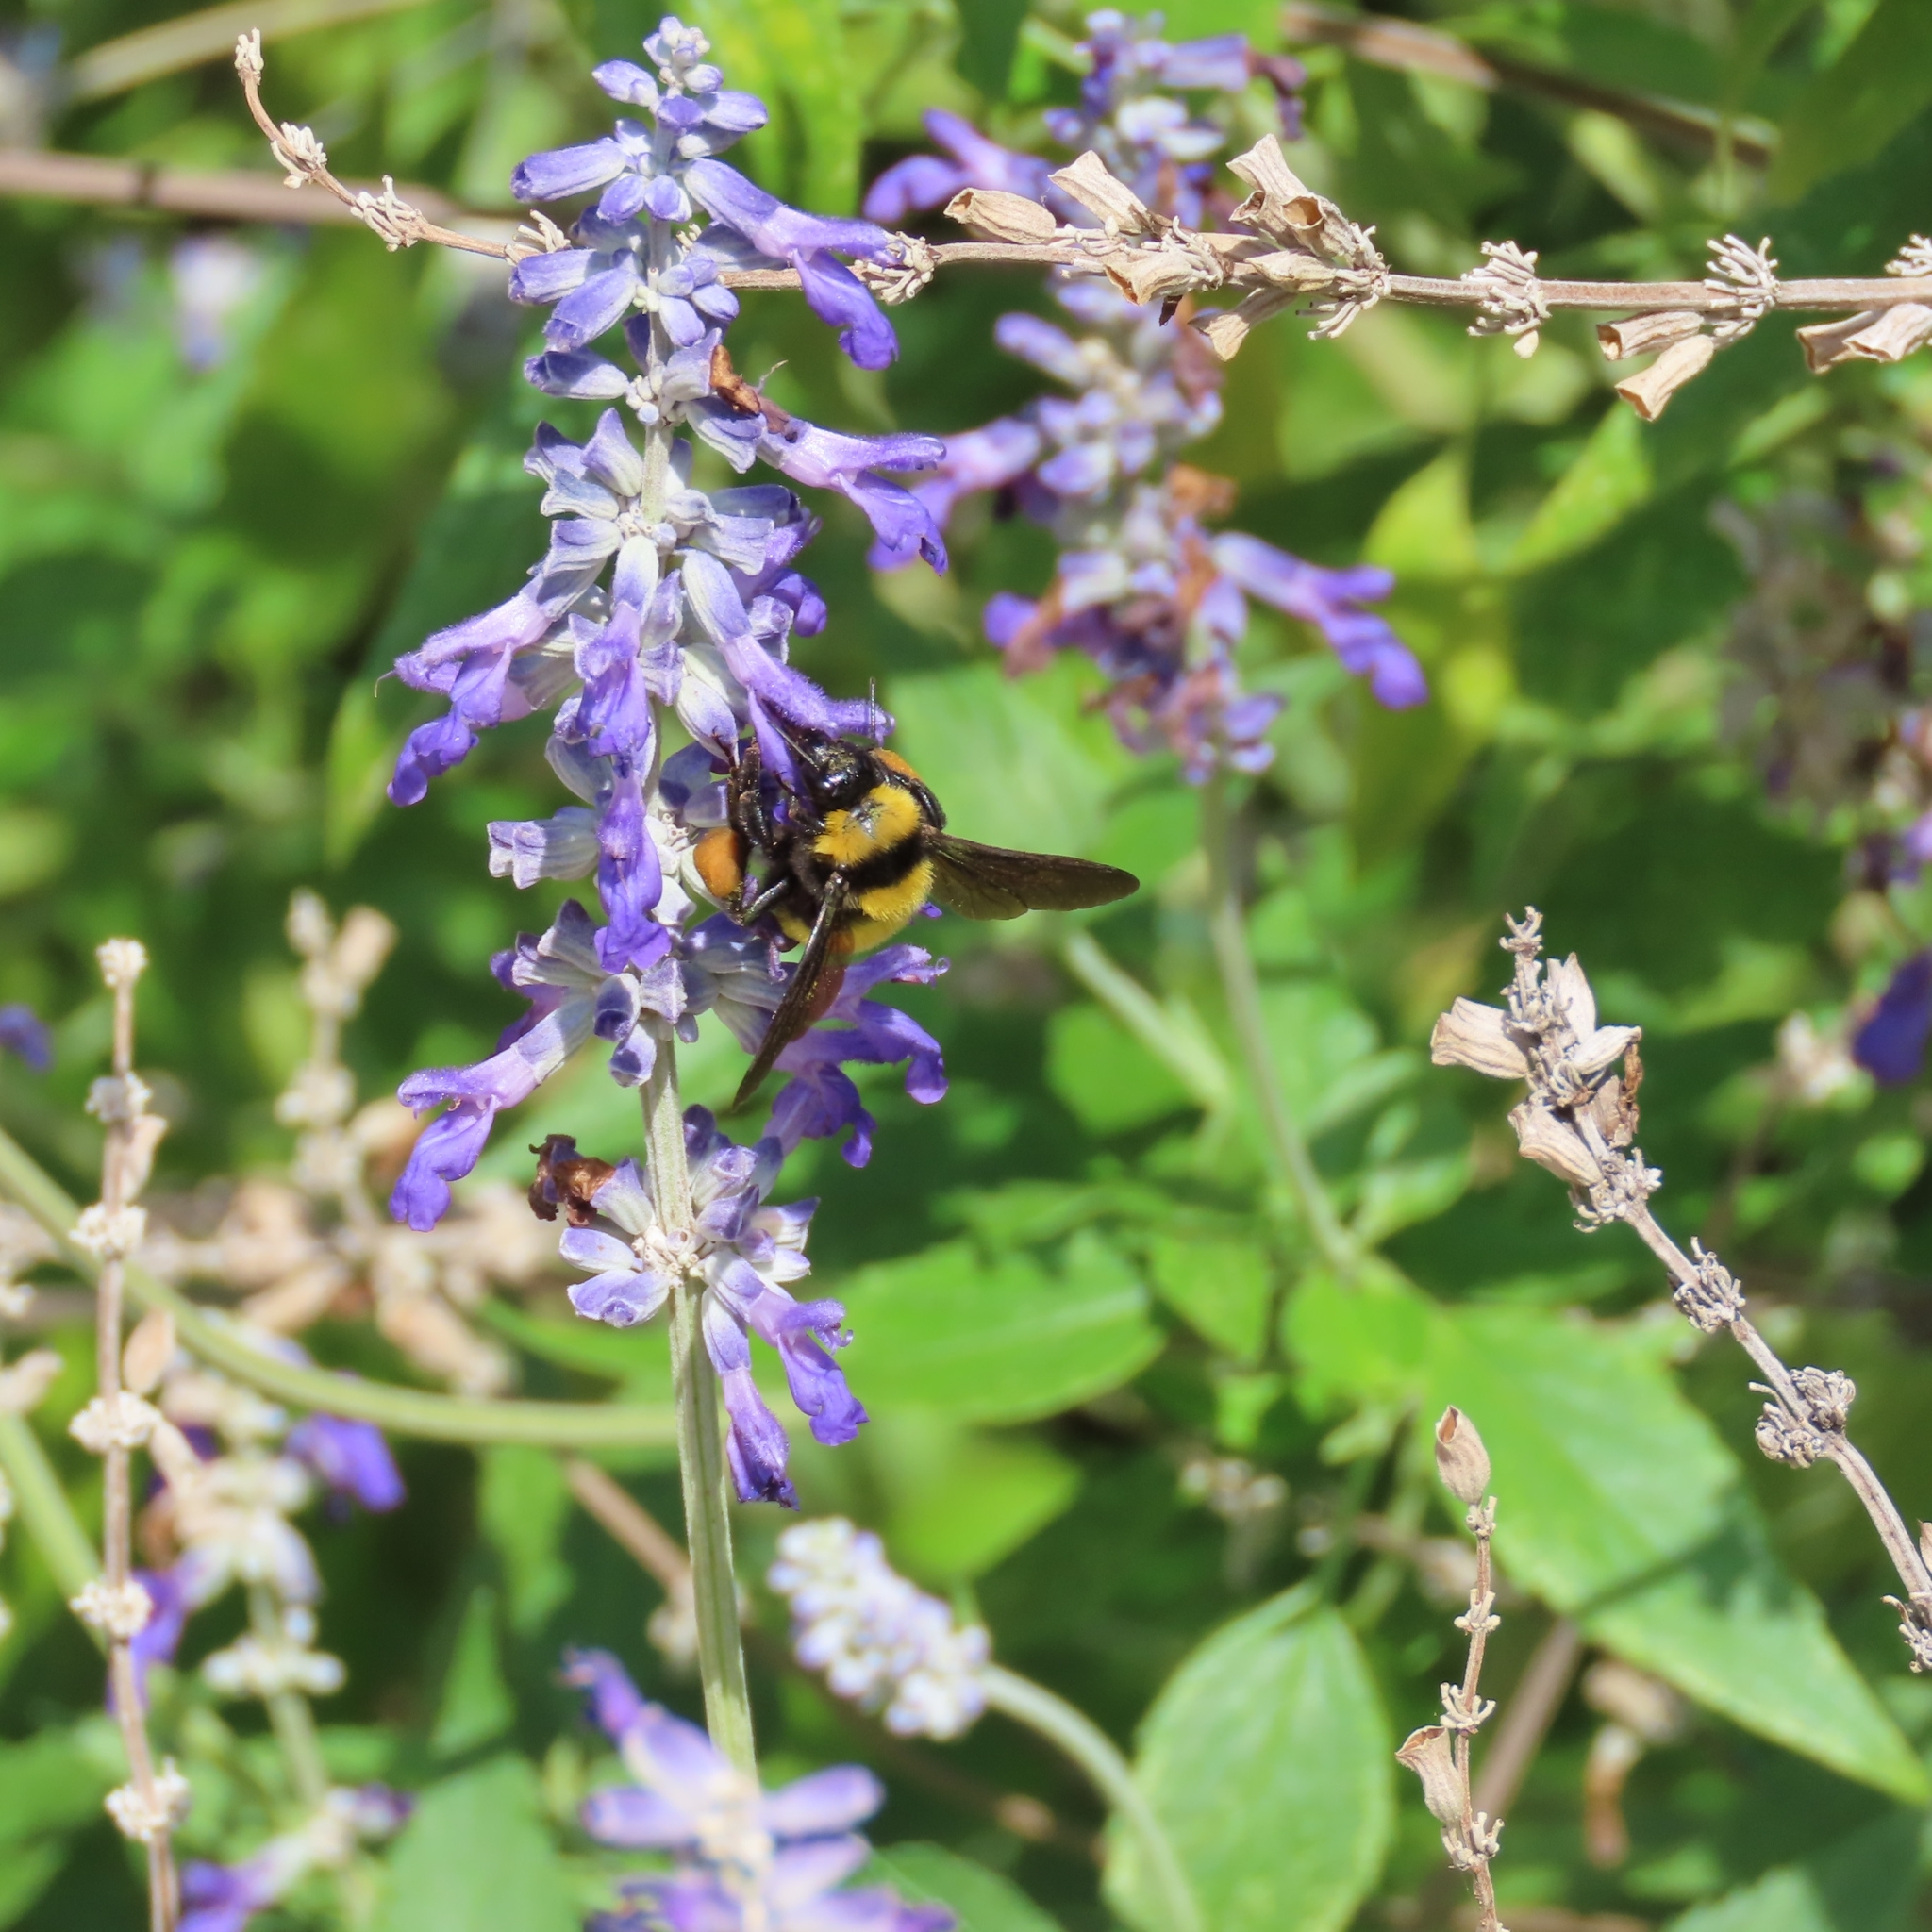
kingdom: Animalia
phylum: Arthropoda
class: Insecta
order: Hymenoptera
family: Apidae
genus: Bombus
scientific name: Bombus sonorus
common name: Sonoran bumble bee
